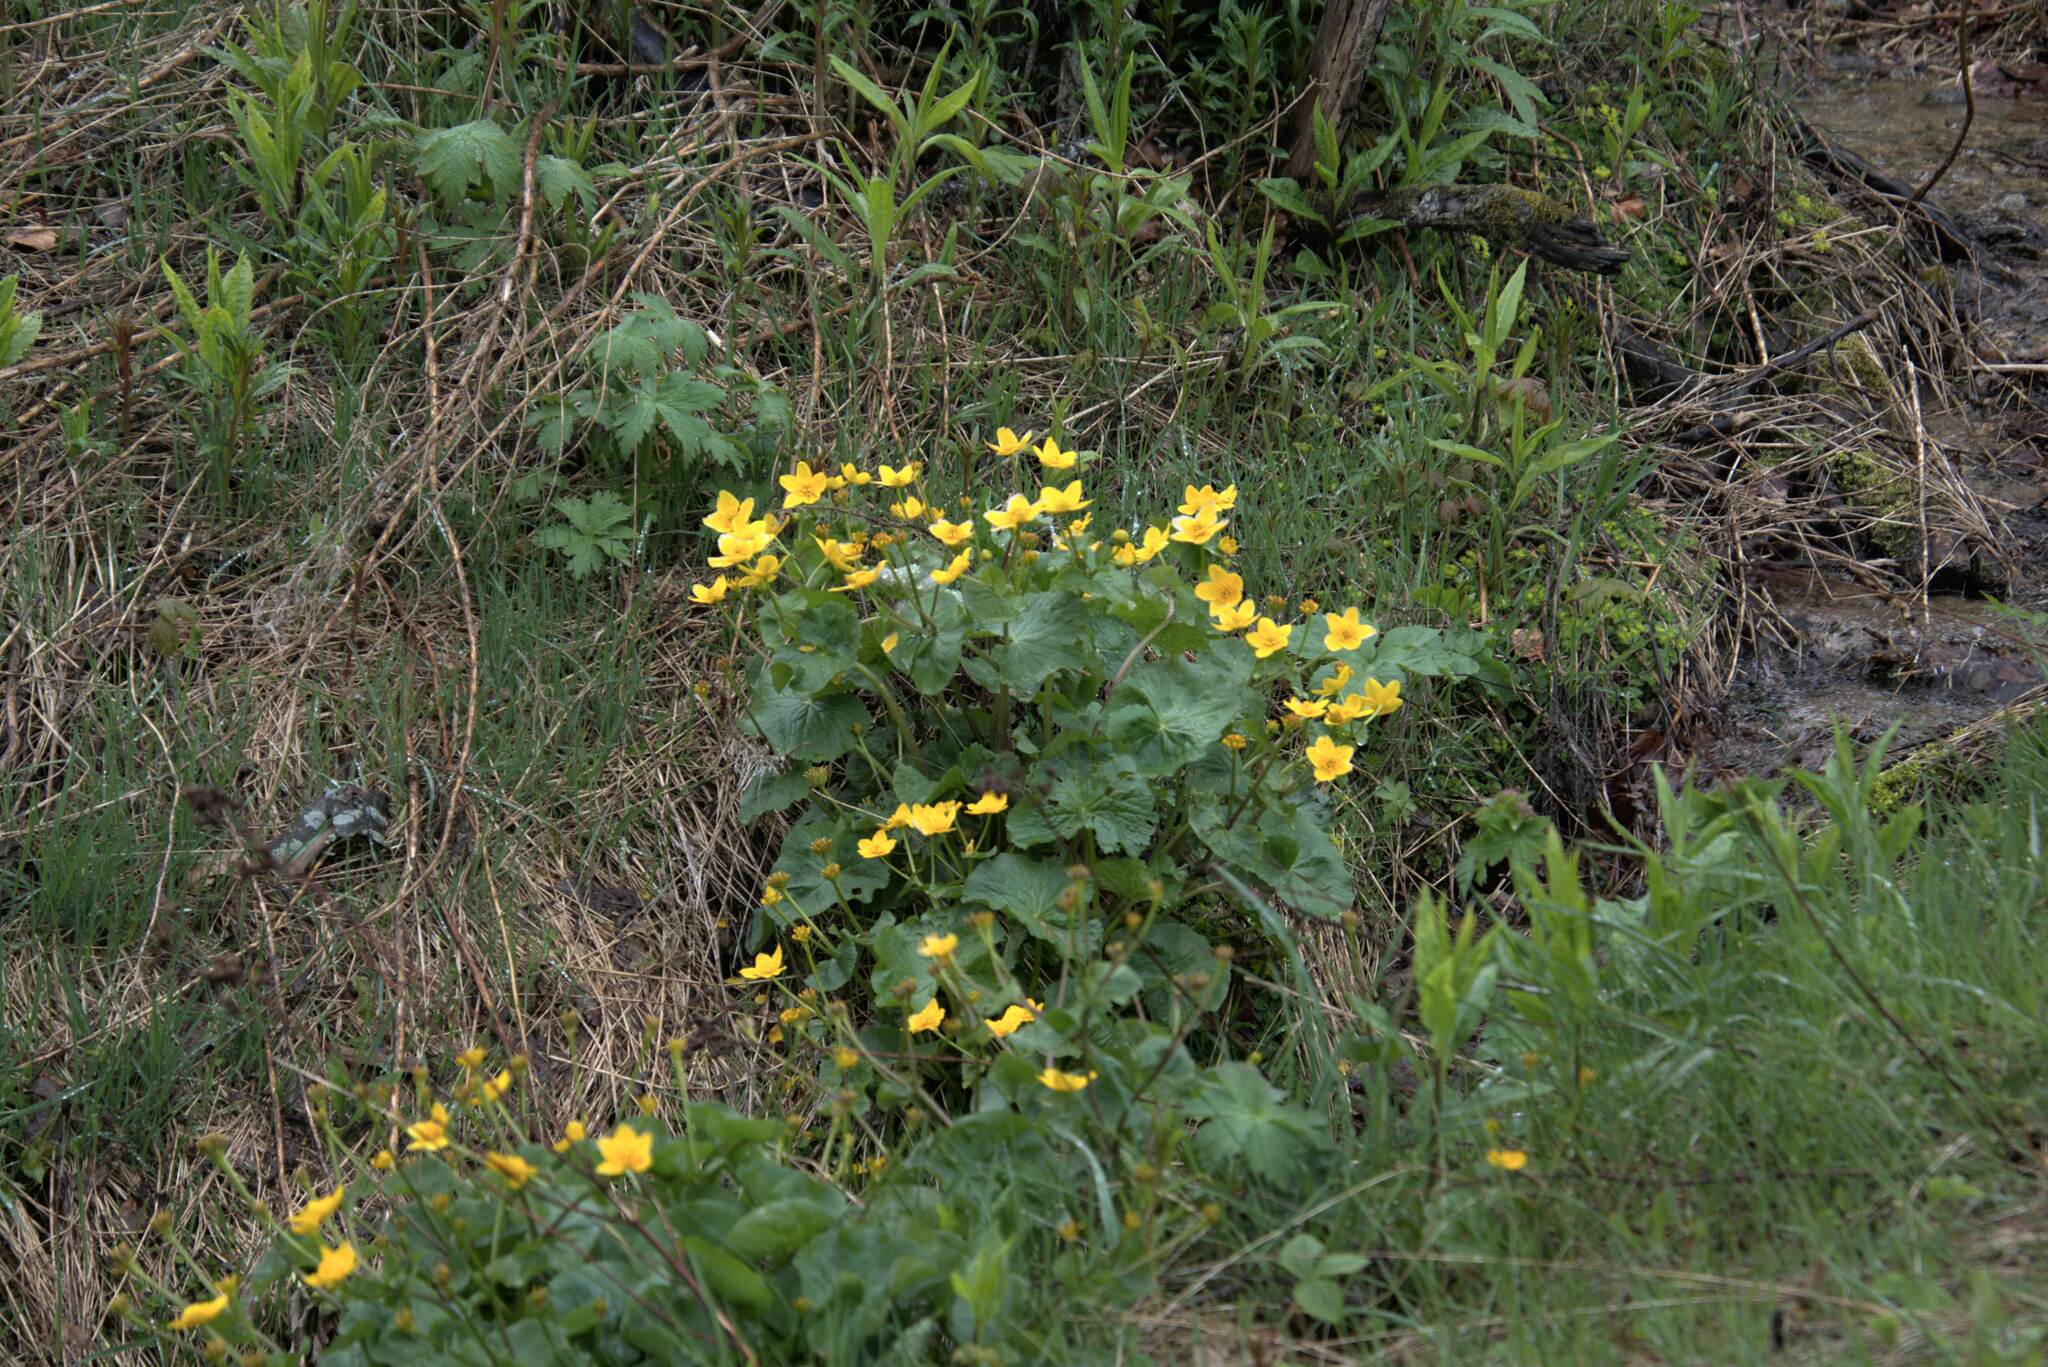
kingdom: Plantae
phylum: Tracheophyta
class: Magnoliopsida
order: Ranunculales
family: Ranunculaceae
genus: Caltha
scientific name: Caltha palustris
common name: Marsh marigold
